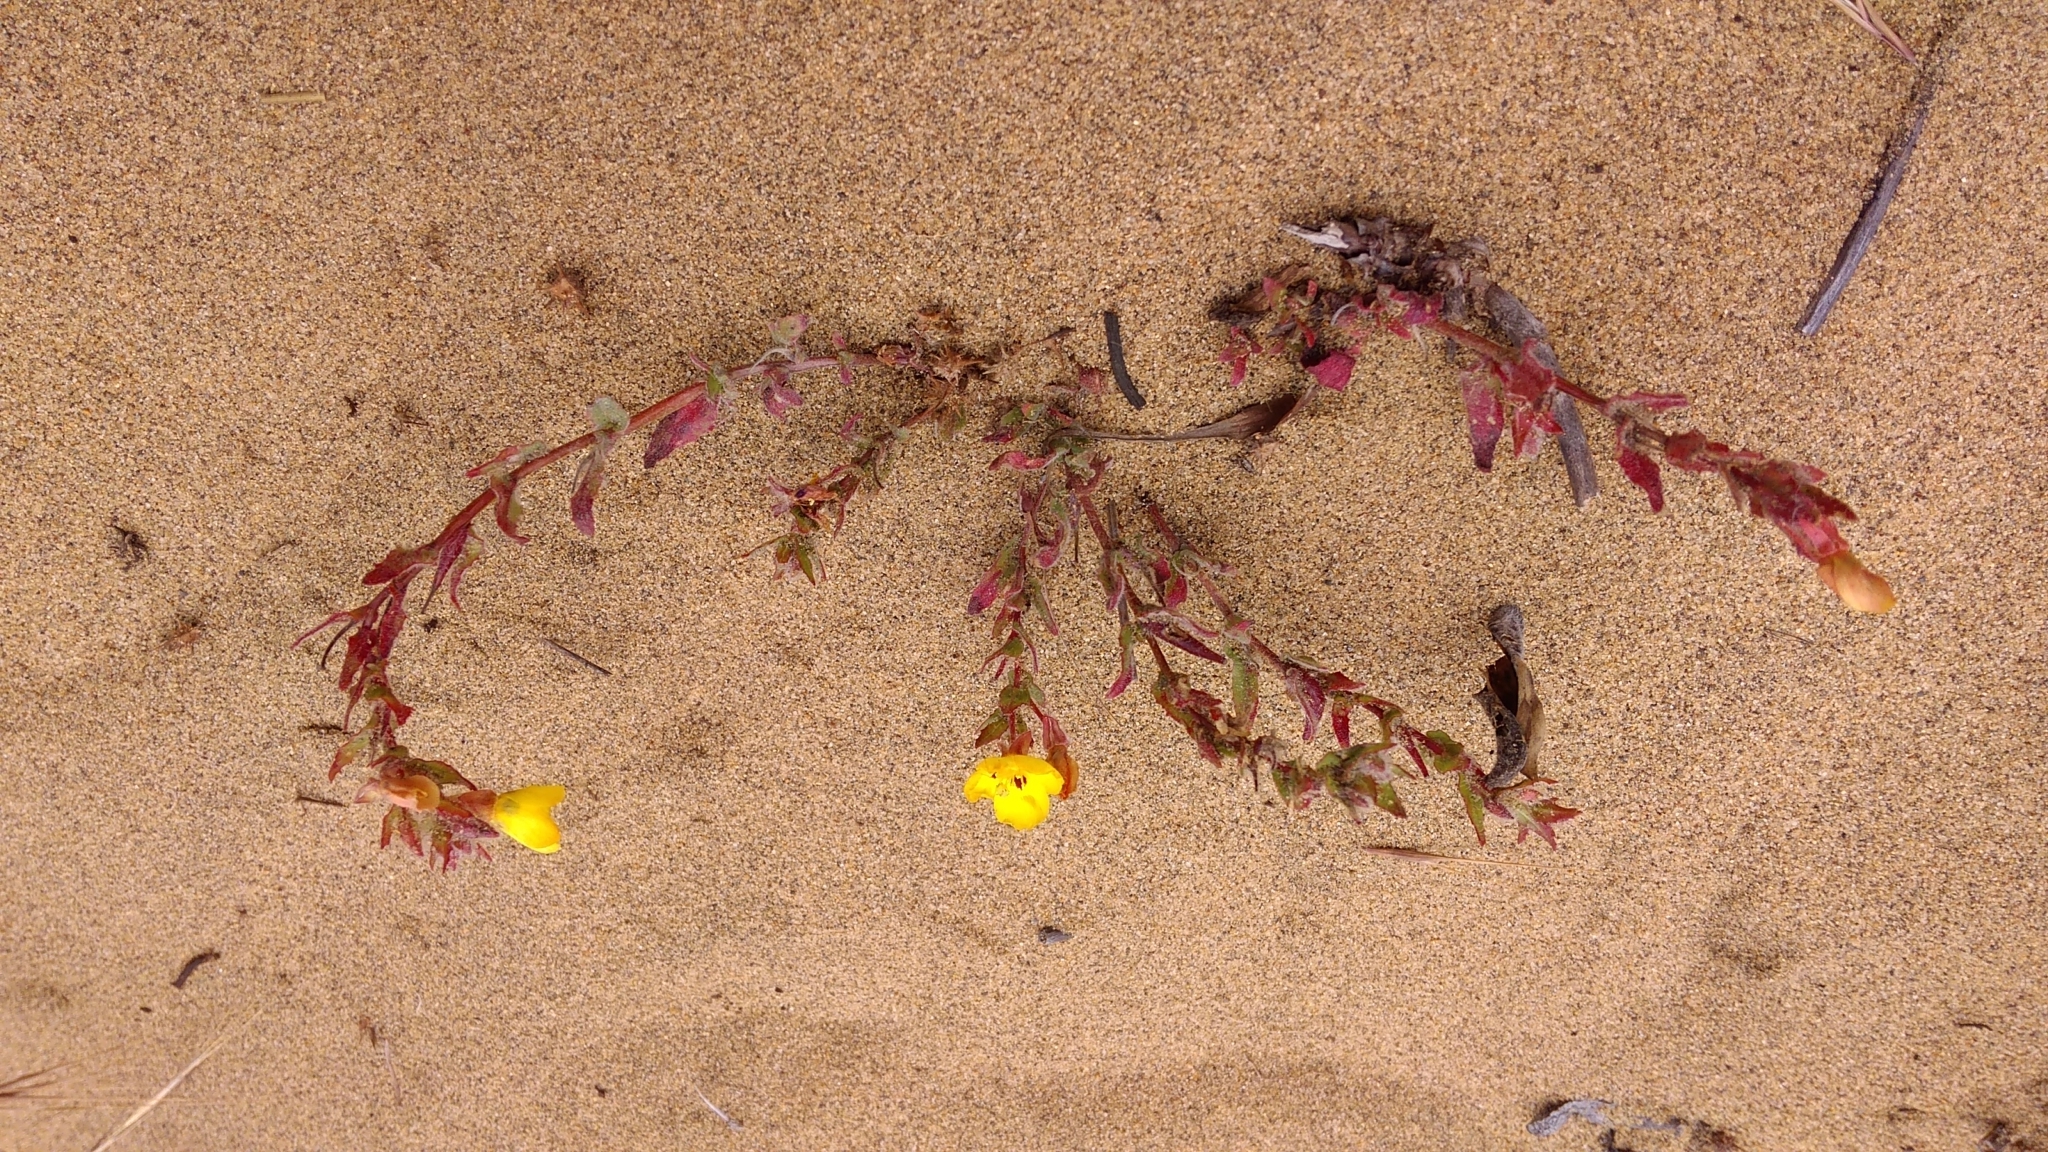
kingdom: Plantae
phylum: Tracheophyta
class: Magnoliopsida
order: Myrtales
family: Onagraceae
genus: Camissoniopsis
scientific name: Camissoniopsis bistorta
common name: Southern suncup
